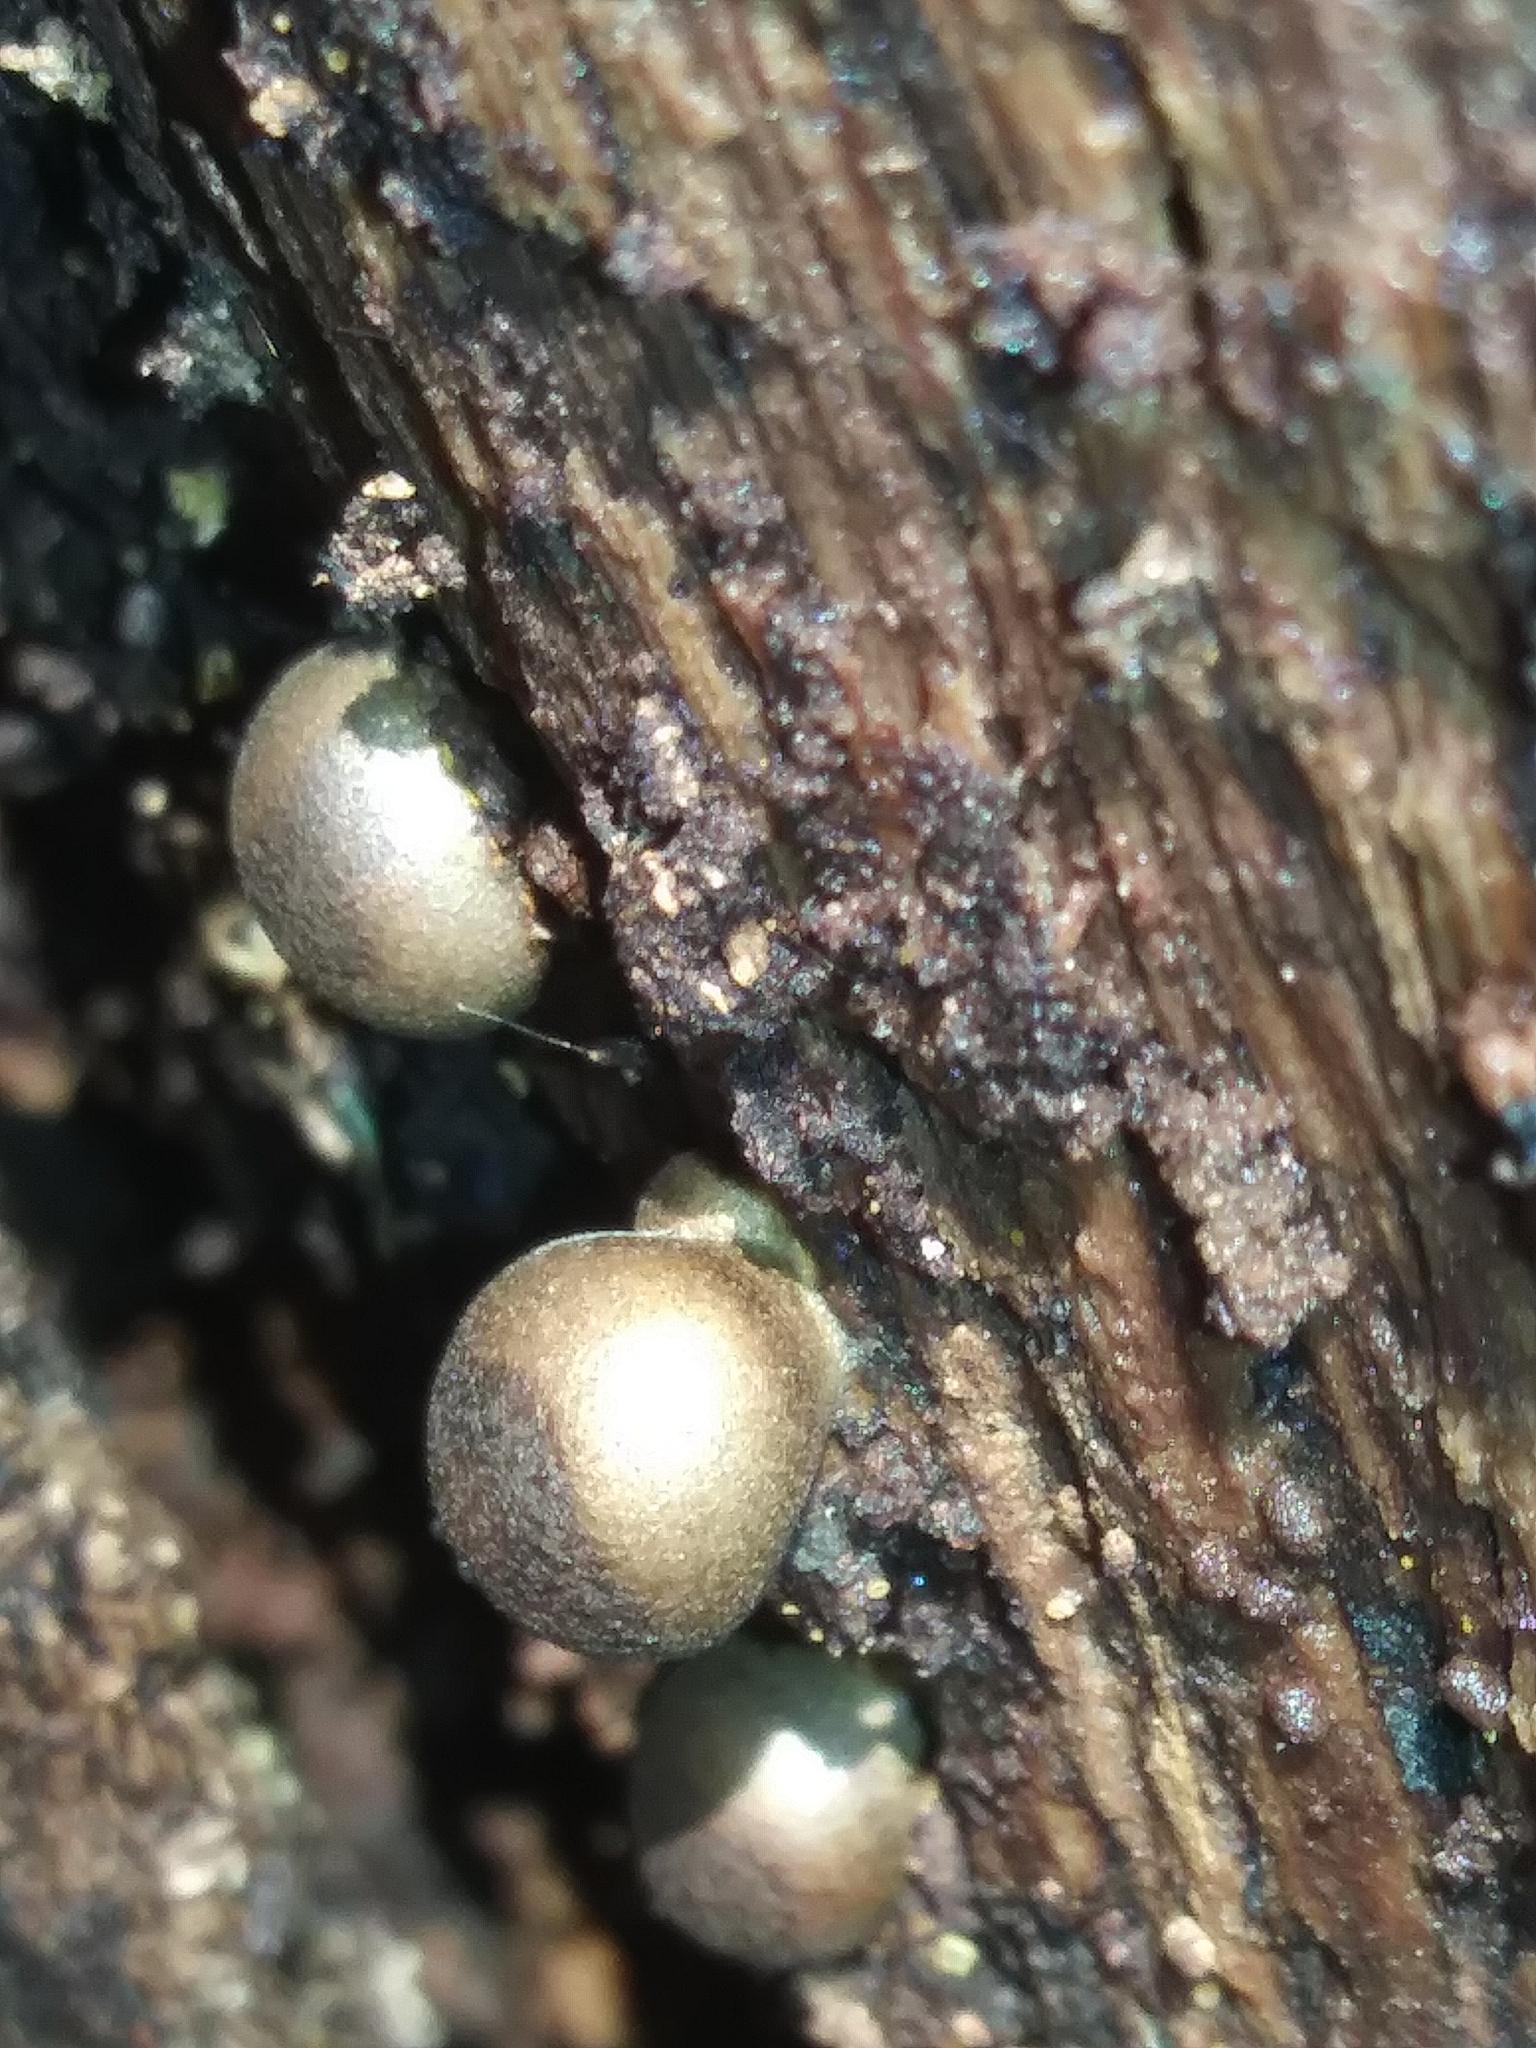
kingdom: Protozoa
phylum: Mycetozoa
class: Myxomycetes
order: Cribrariales
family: Tubiferaceae
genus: Lycogala
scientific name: Lycogala epidendrum
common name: Wolf's milk
